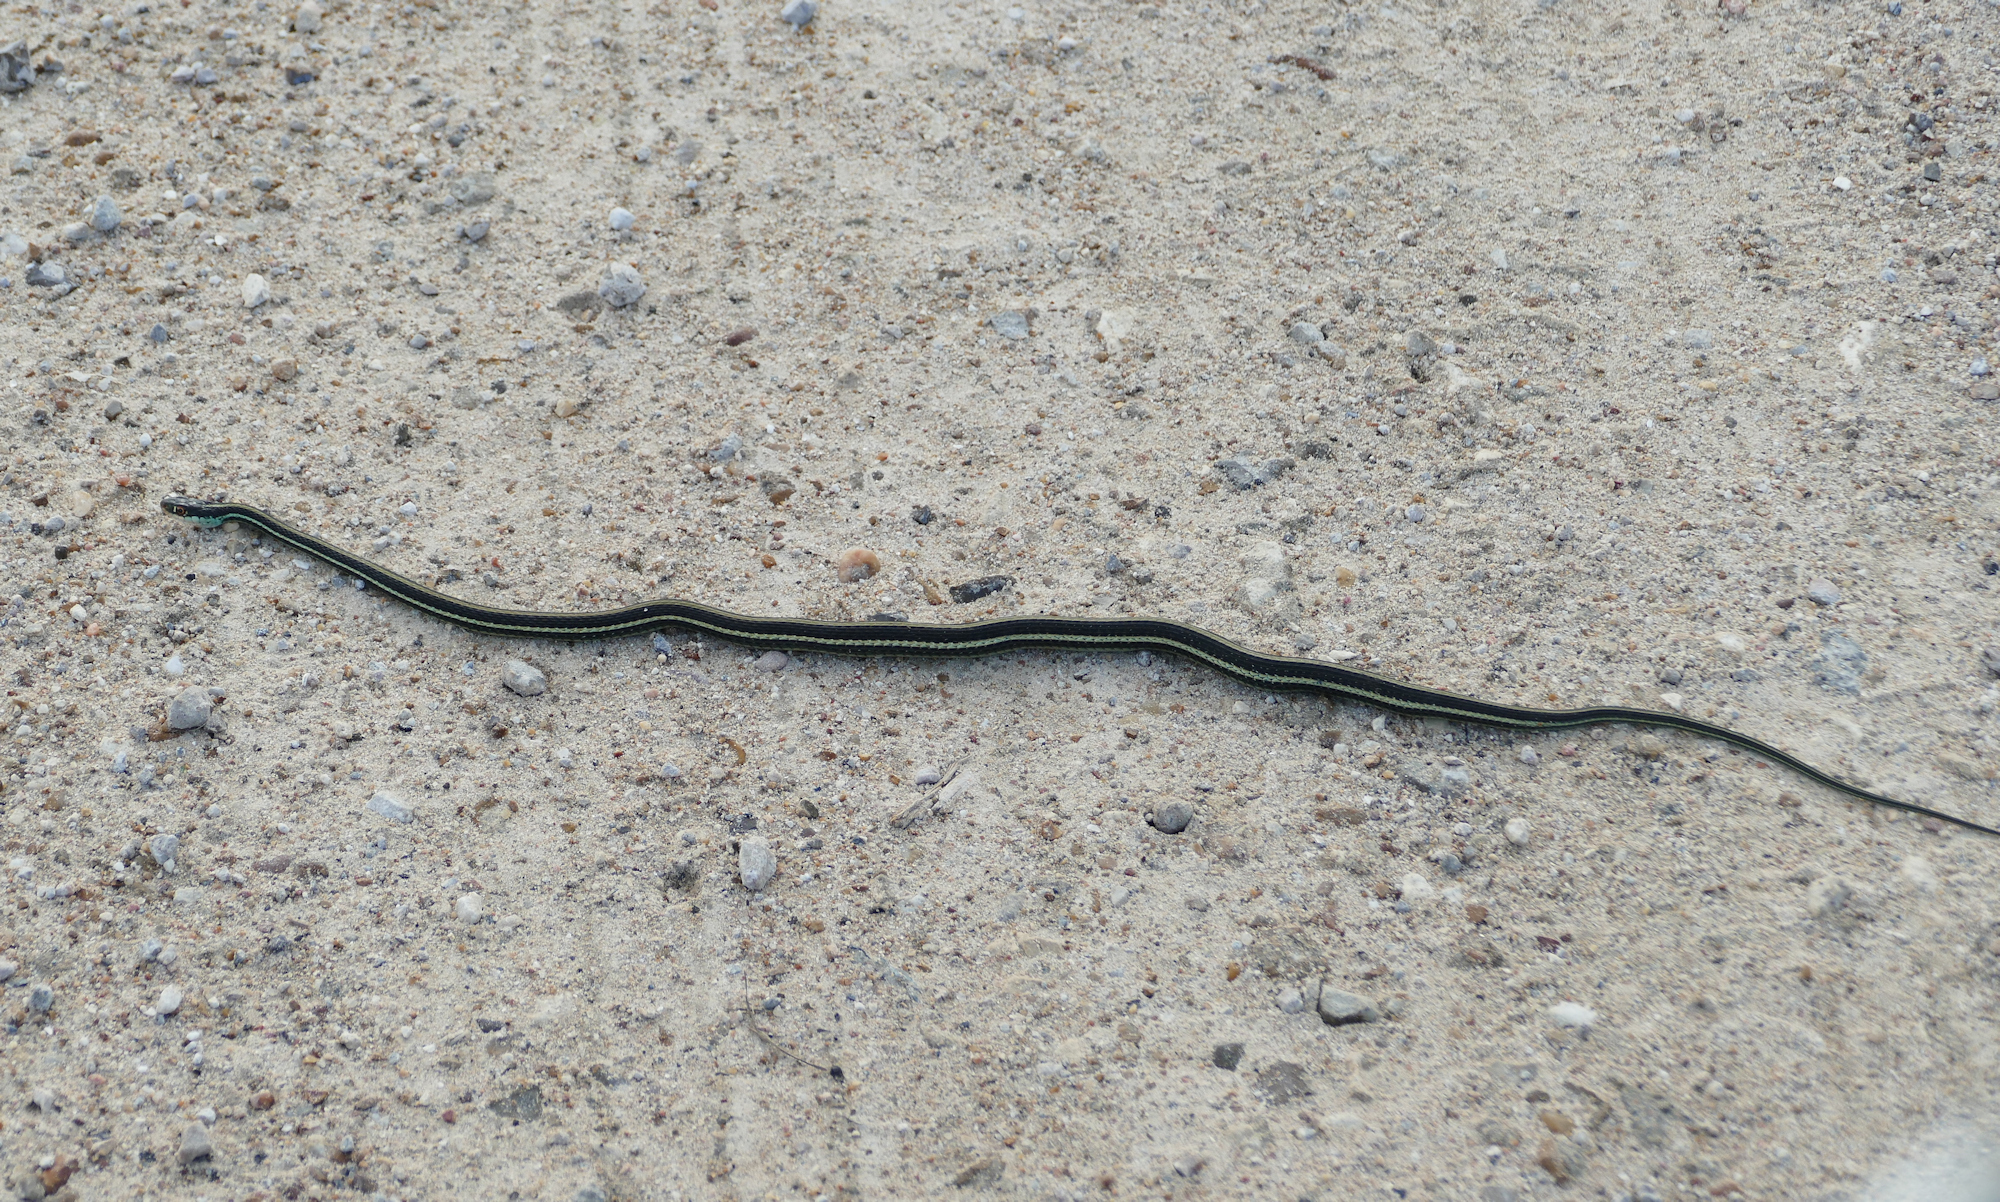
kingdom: Animalia
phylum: Chordata
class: Squamata
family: Colubridae
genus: Thamnophis
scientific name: Thamnophis proximus
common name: Western ribbon snake
